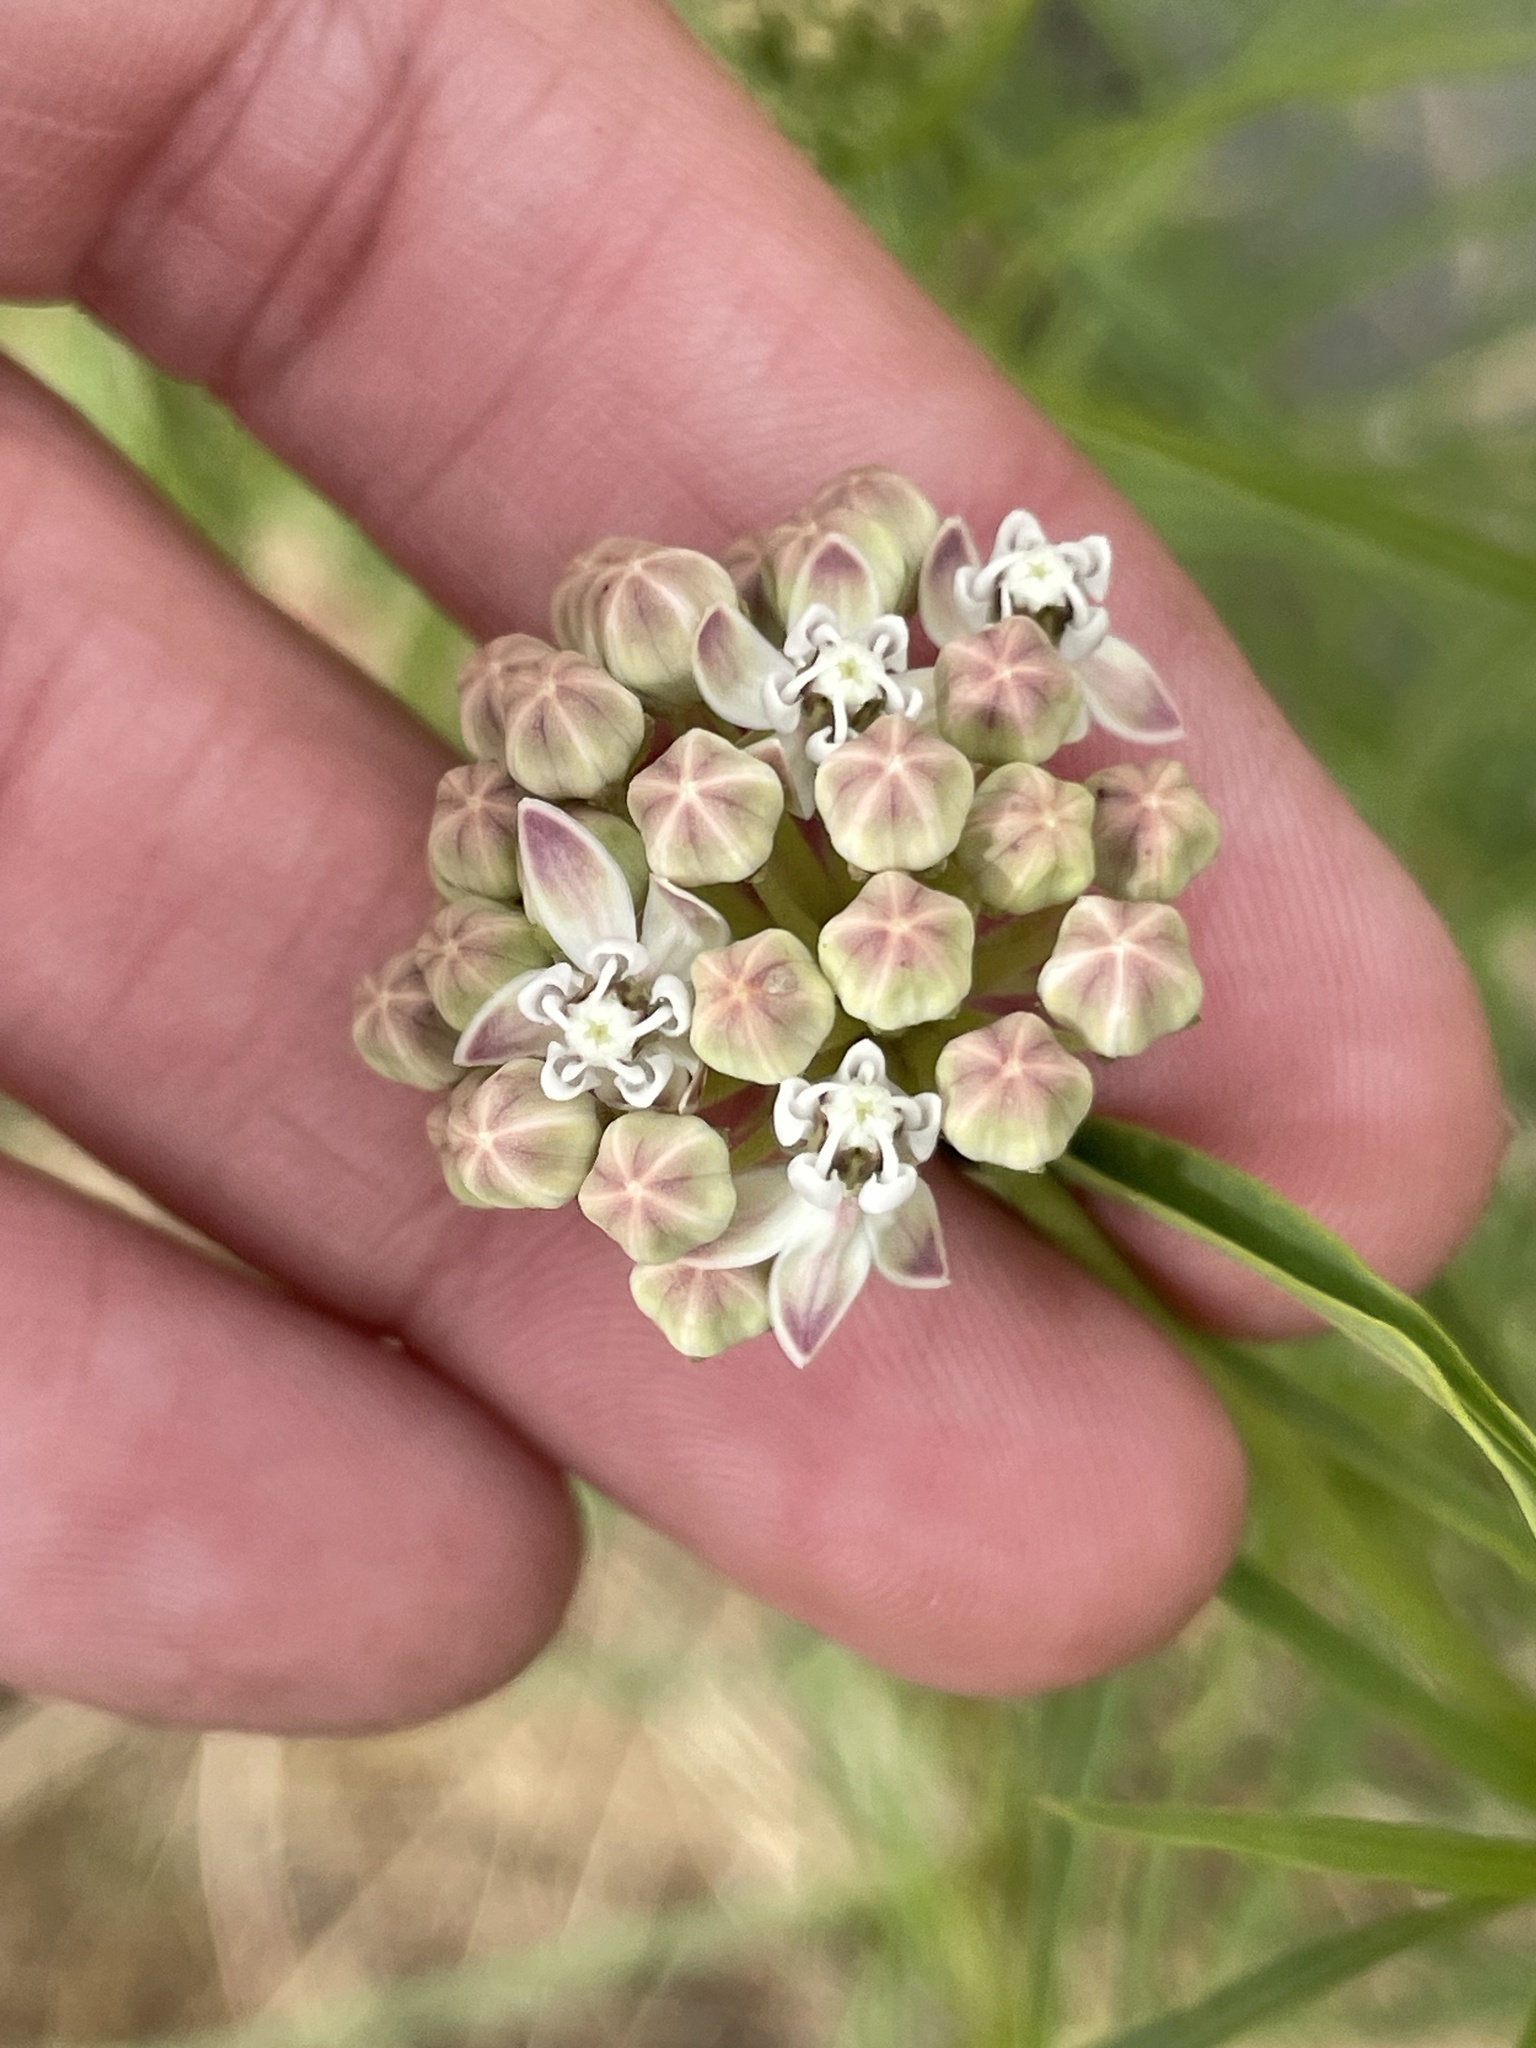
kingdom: Plantae
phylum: Tracheophyta
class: Magnoliopsida
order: Gentianales
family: Apocynaceae
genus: Asclepias
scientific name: Asclepias fascicularis
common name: Mexican milkweed
